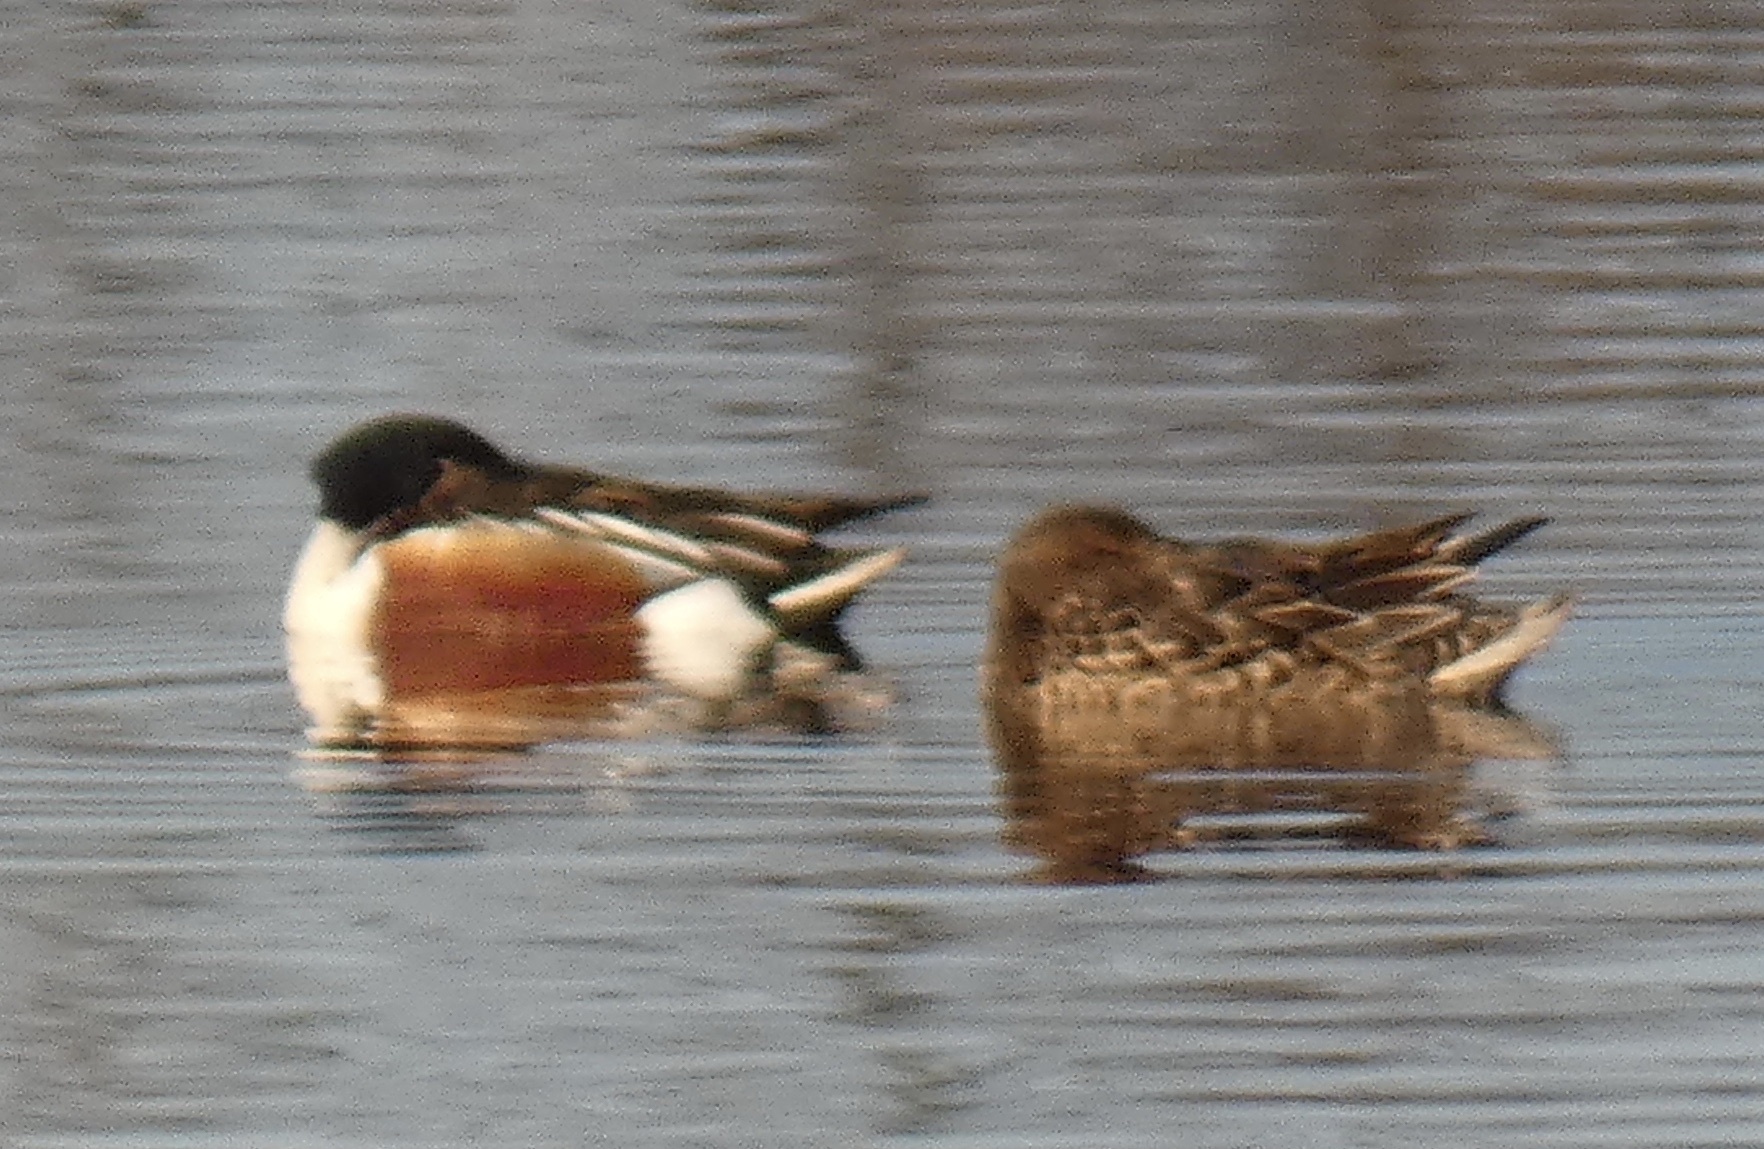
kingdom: Animalia
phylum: Chordata
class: Aves
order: Anseriformes
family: Anatidae
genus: Spatula
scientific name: Spatula clypeata
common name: Northern shoveler
